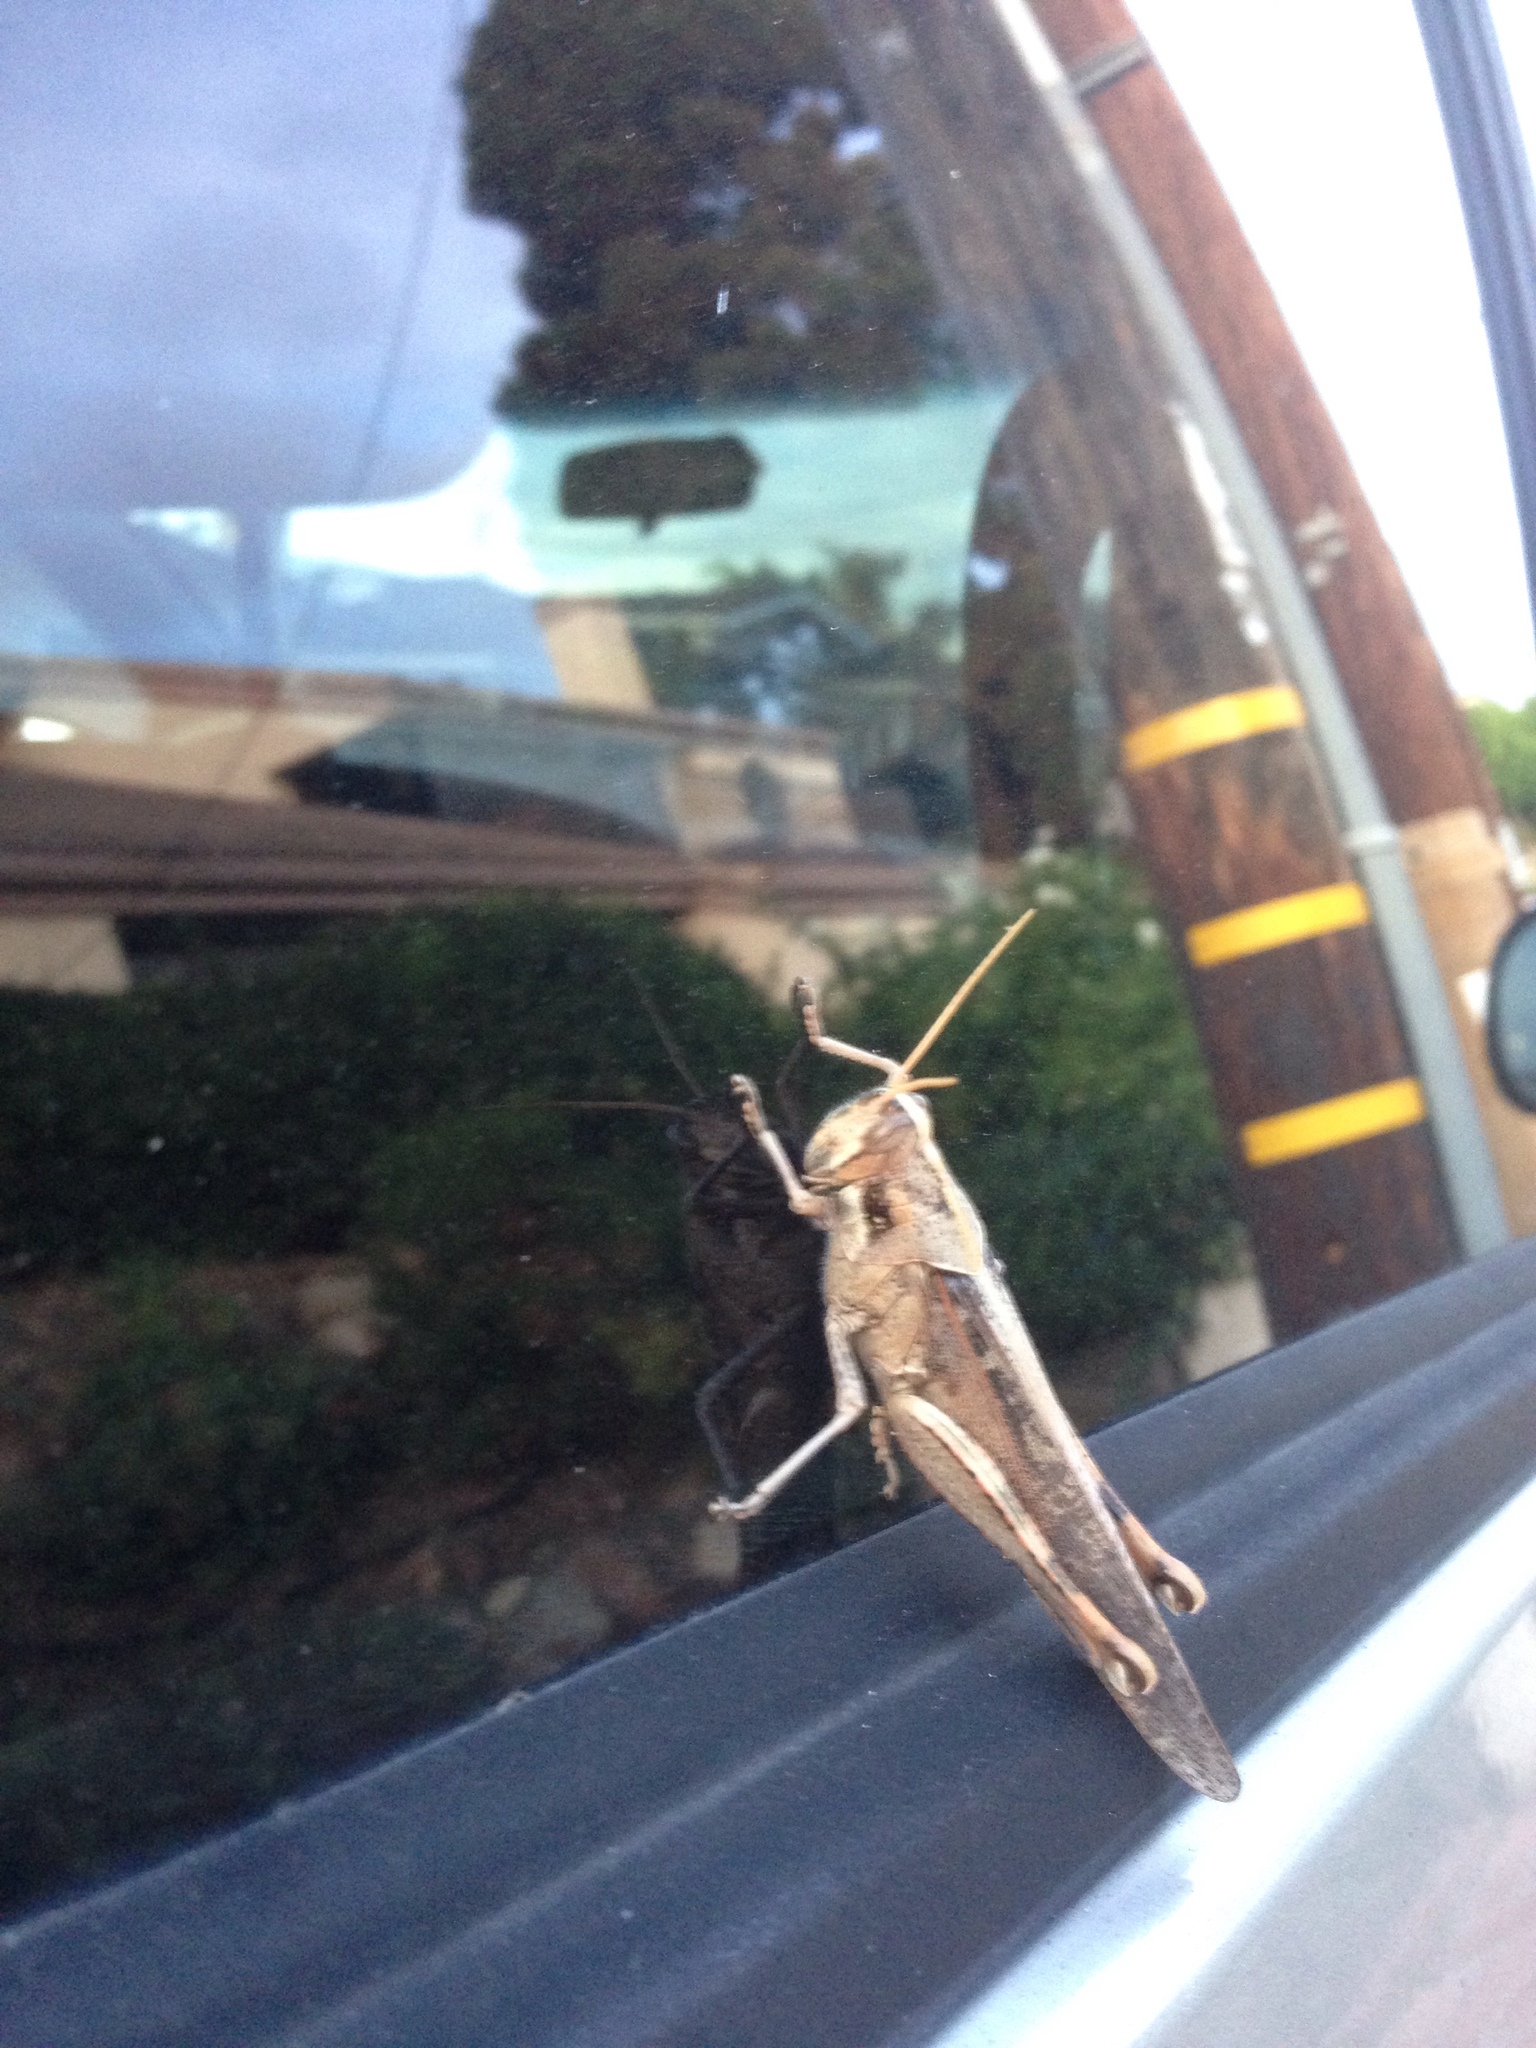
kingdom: Animalia
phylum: Arthropoda
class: Insecta
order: Orthoptera
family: Acrididae
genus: Schistocerca
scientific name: Schistocerca nitens
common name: Vagrant grasshopper
